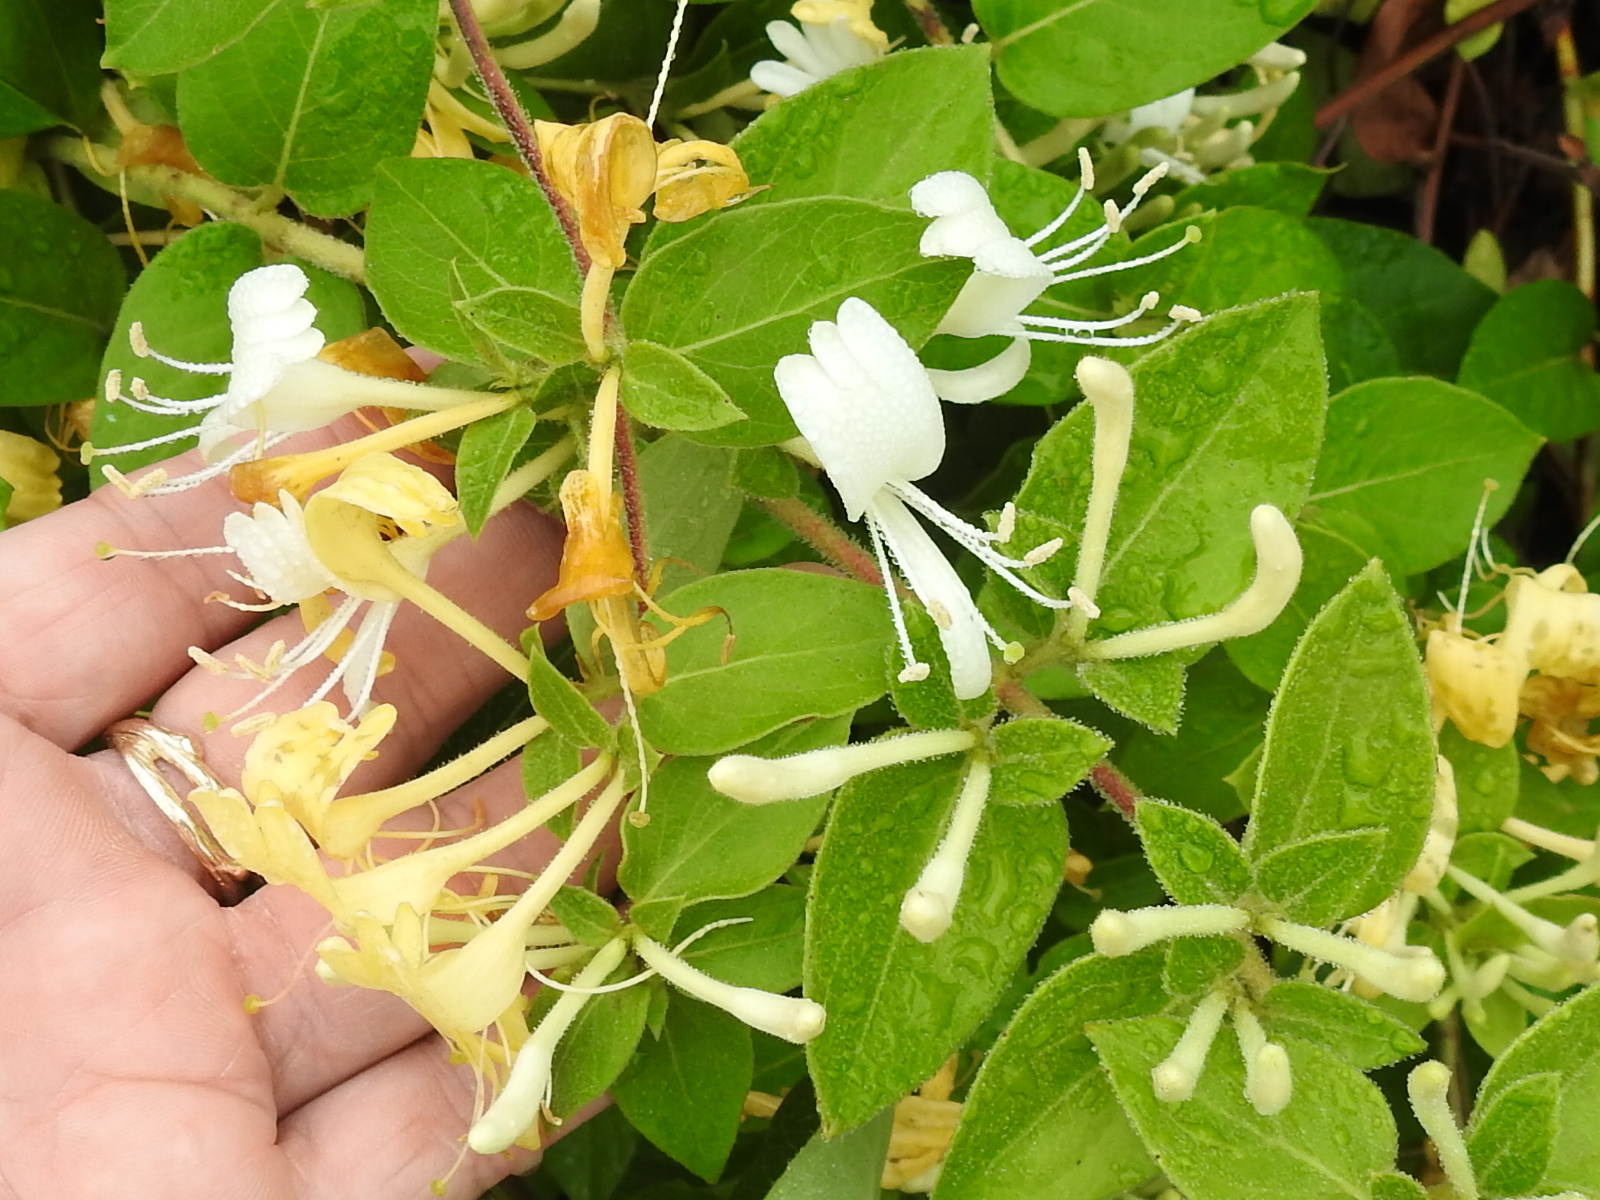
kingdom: Plantae
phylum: Tracheophyta
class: Magnoliopsida
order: Dipsacales
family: Caprifoliaceae
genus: Lonicera
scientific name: Lonicera japonica
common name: Japanese honeysuckle
